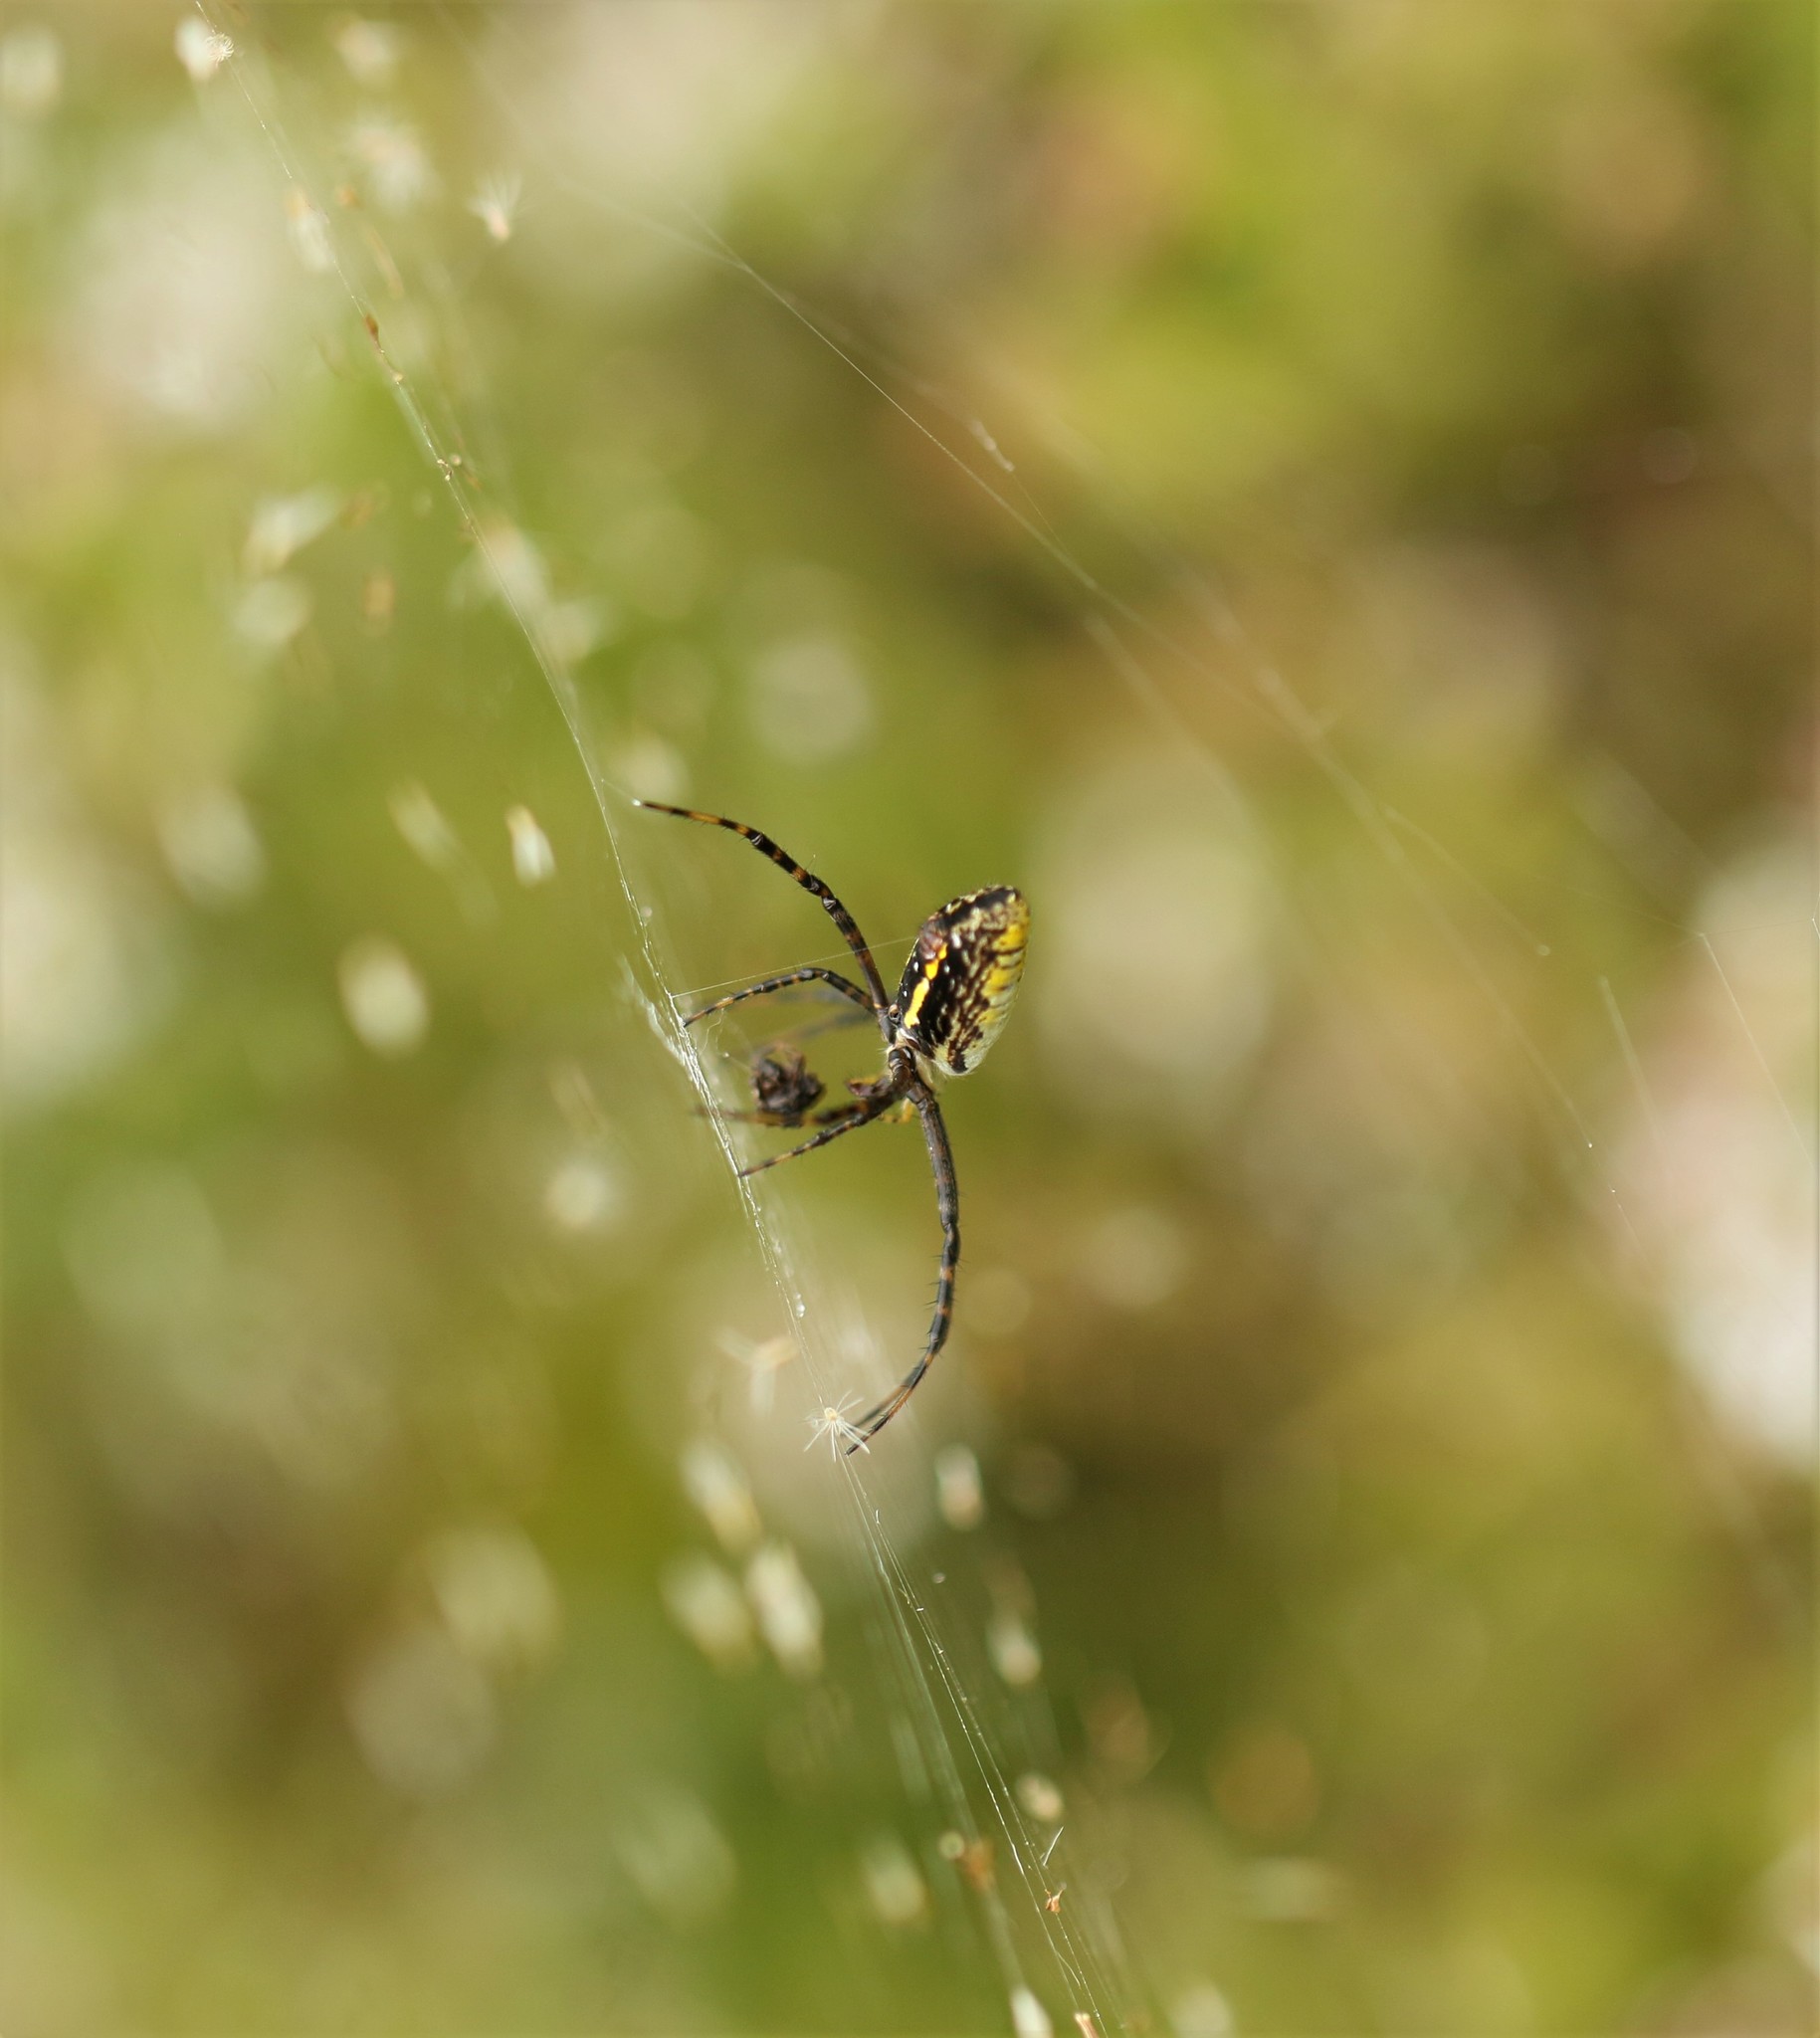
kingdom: Animalia
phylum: Arthropoda
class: Arachnida
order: Araneae
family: Araneidae
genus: Argiope
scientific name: Argiope trifasciata
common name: Banded garden spider
